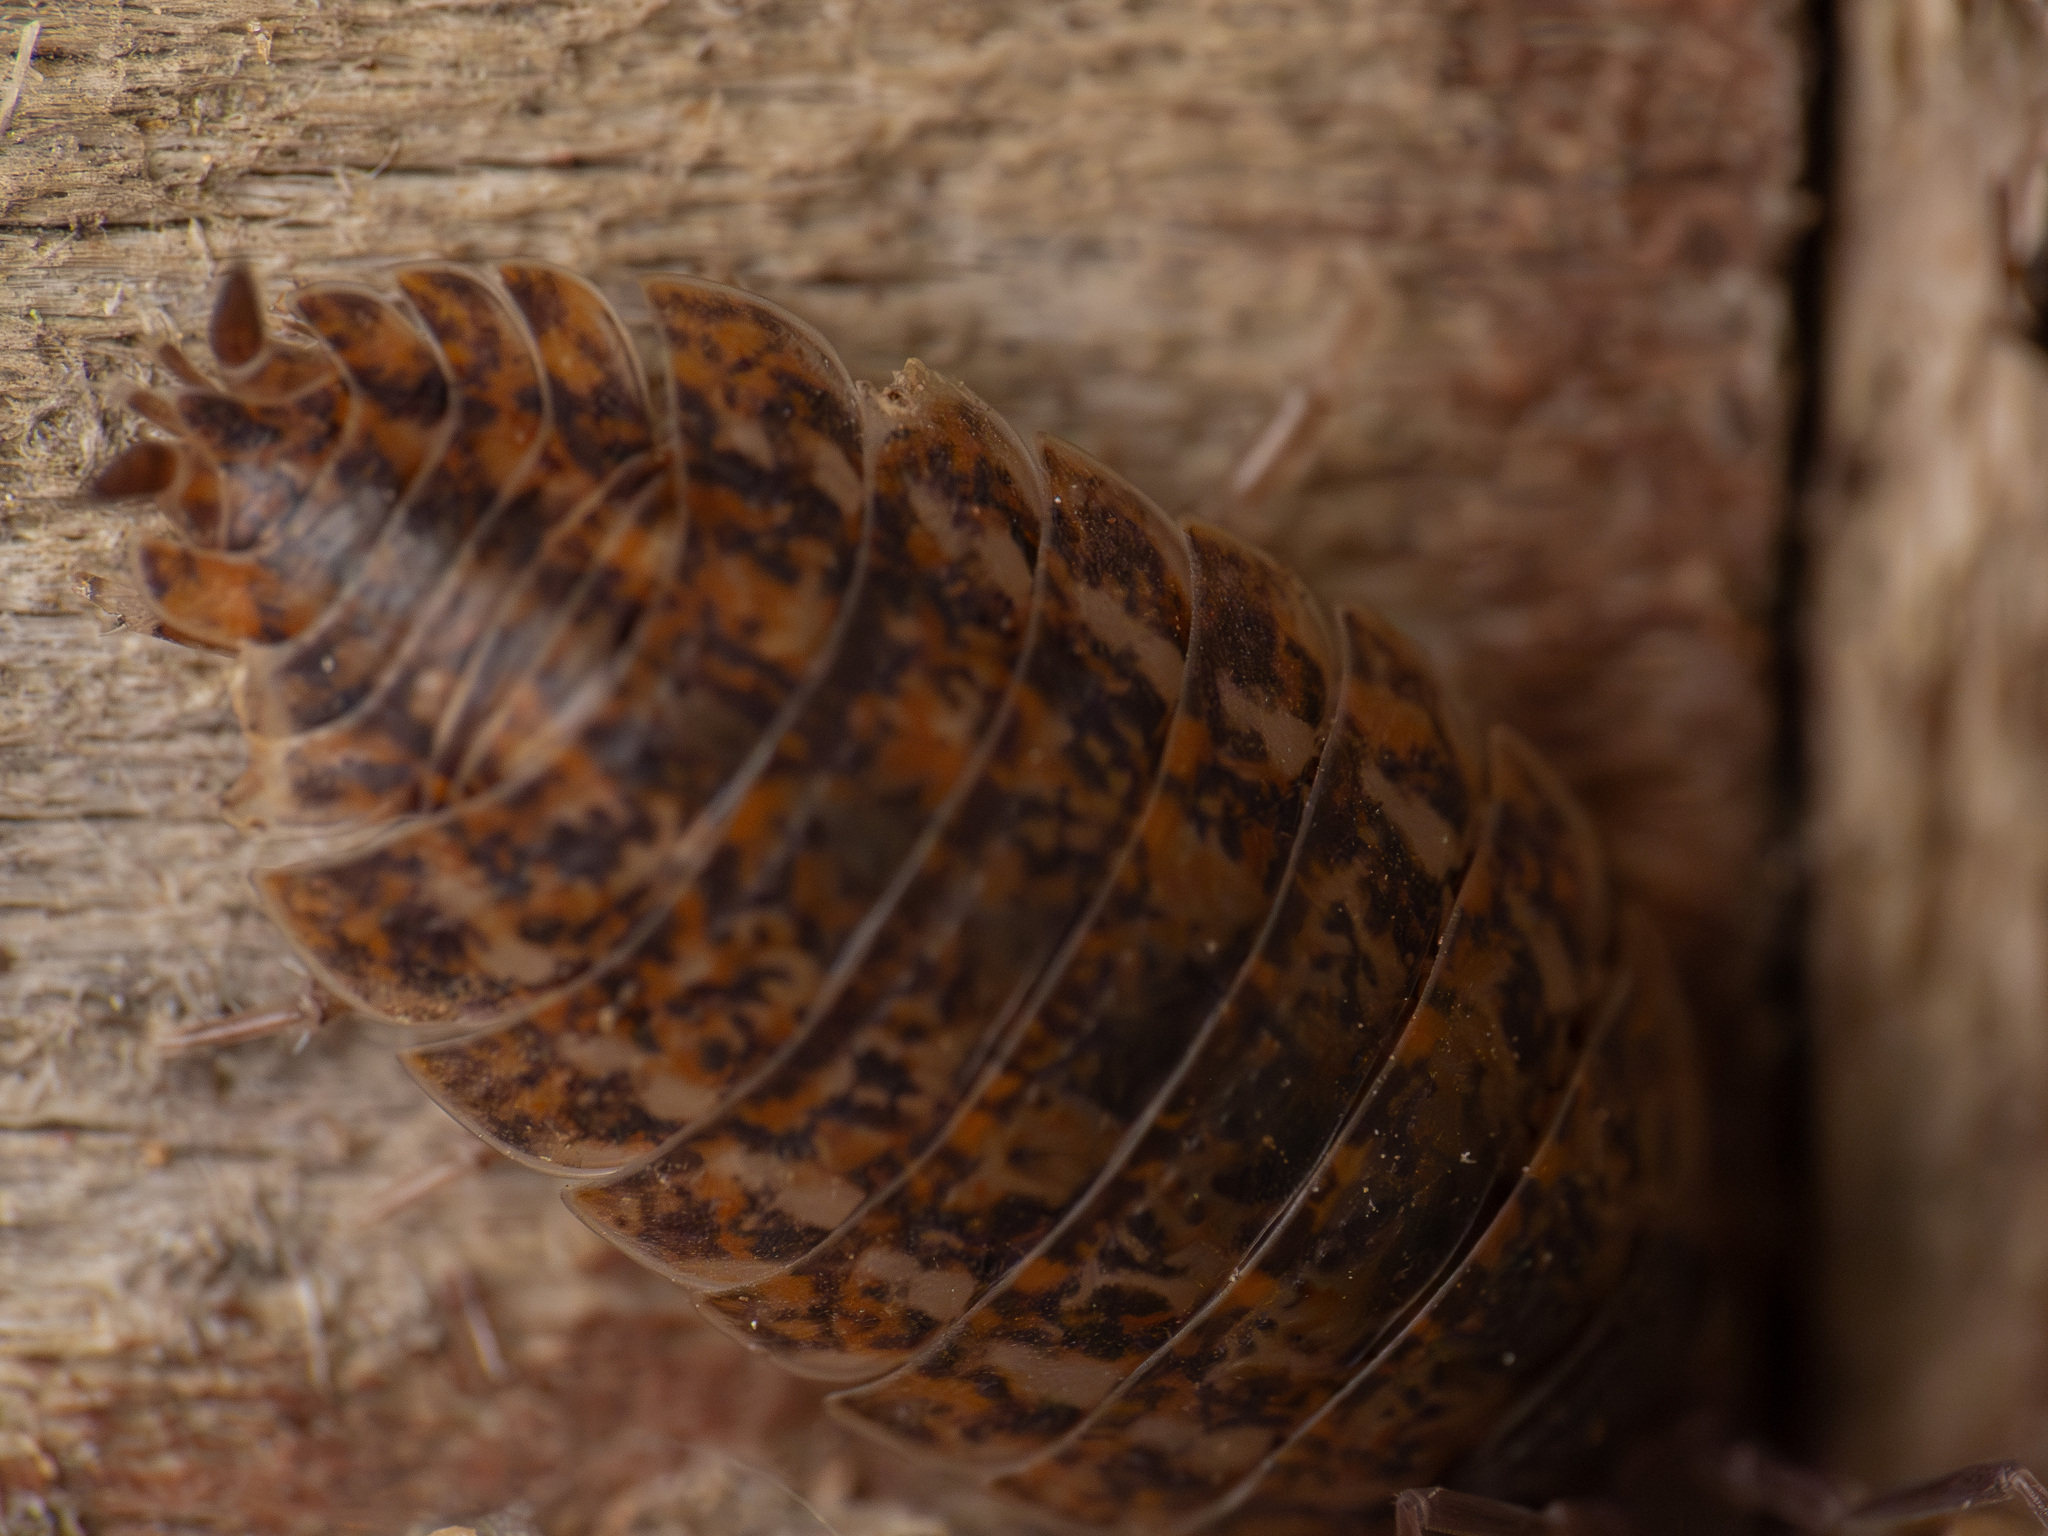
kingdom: Animalia
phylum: Arthropoda
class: Malacostraca
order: Isopoda
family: Trachelipodidae
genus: Trachelipus
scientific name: Trachelipus rathkii
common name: Isopod
